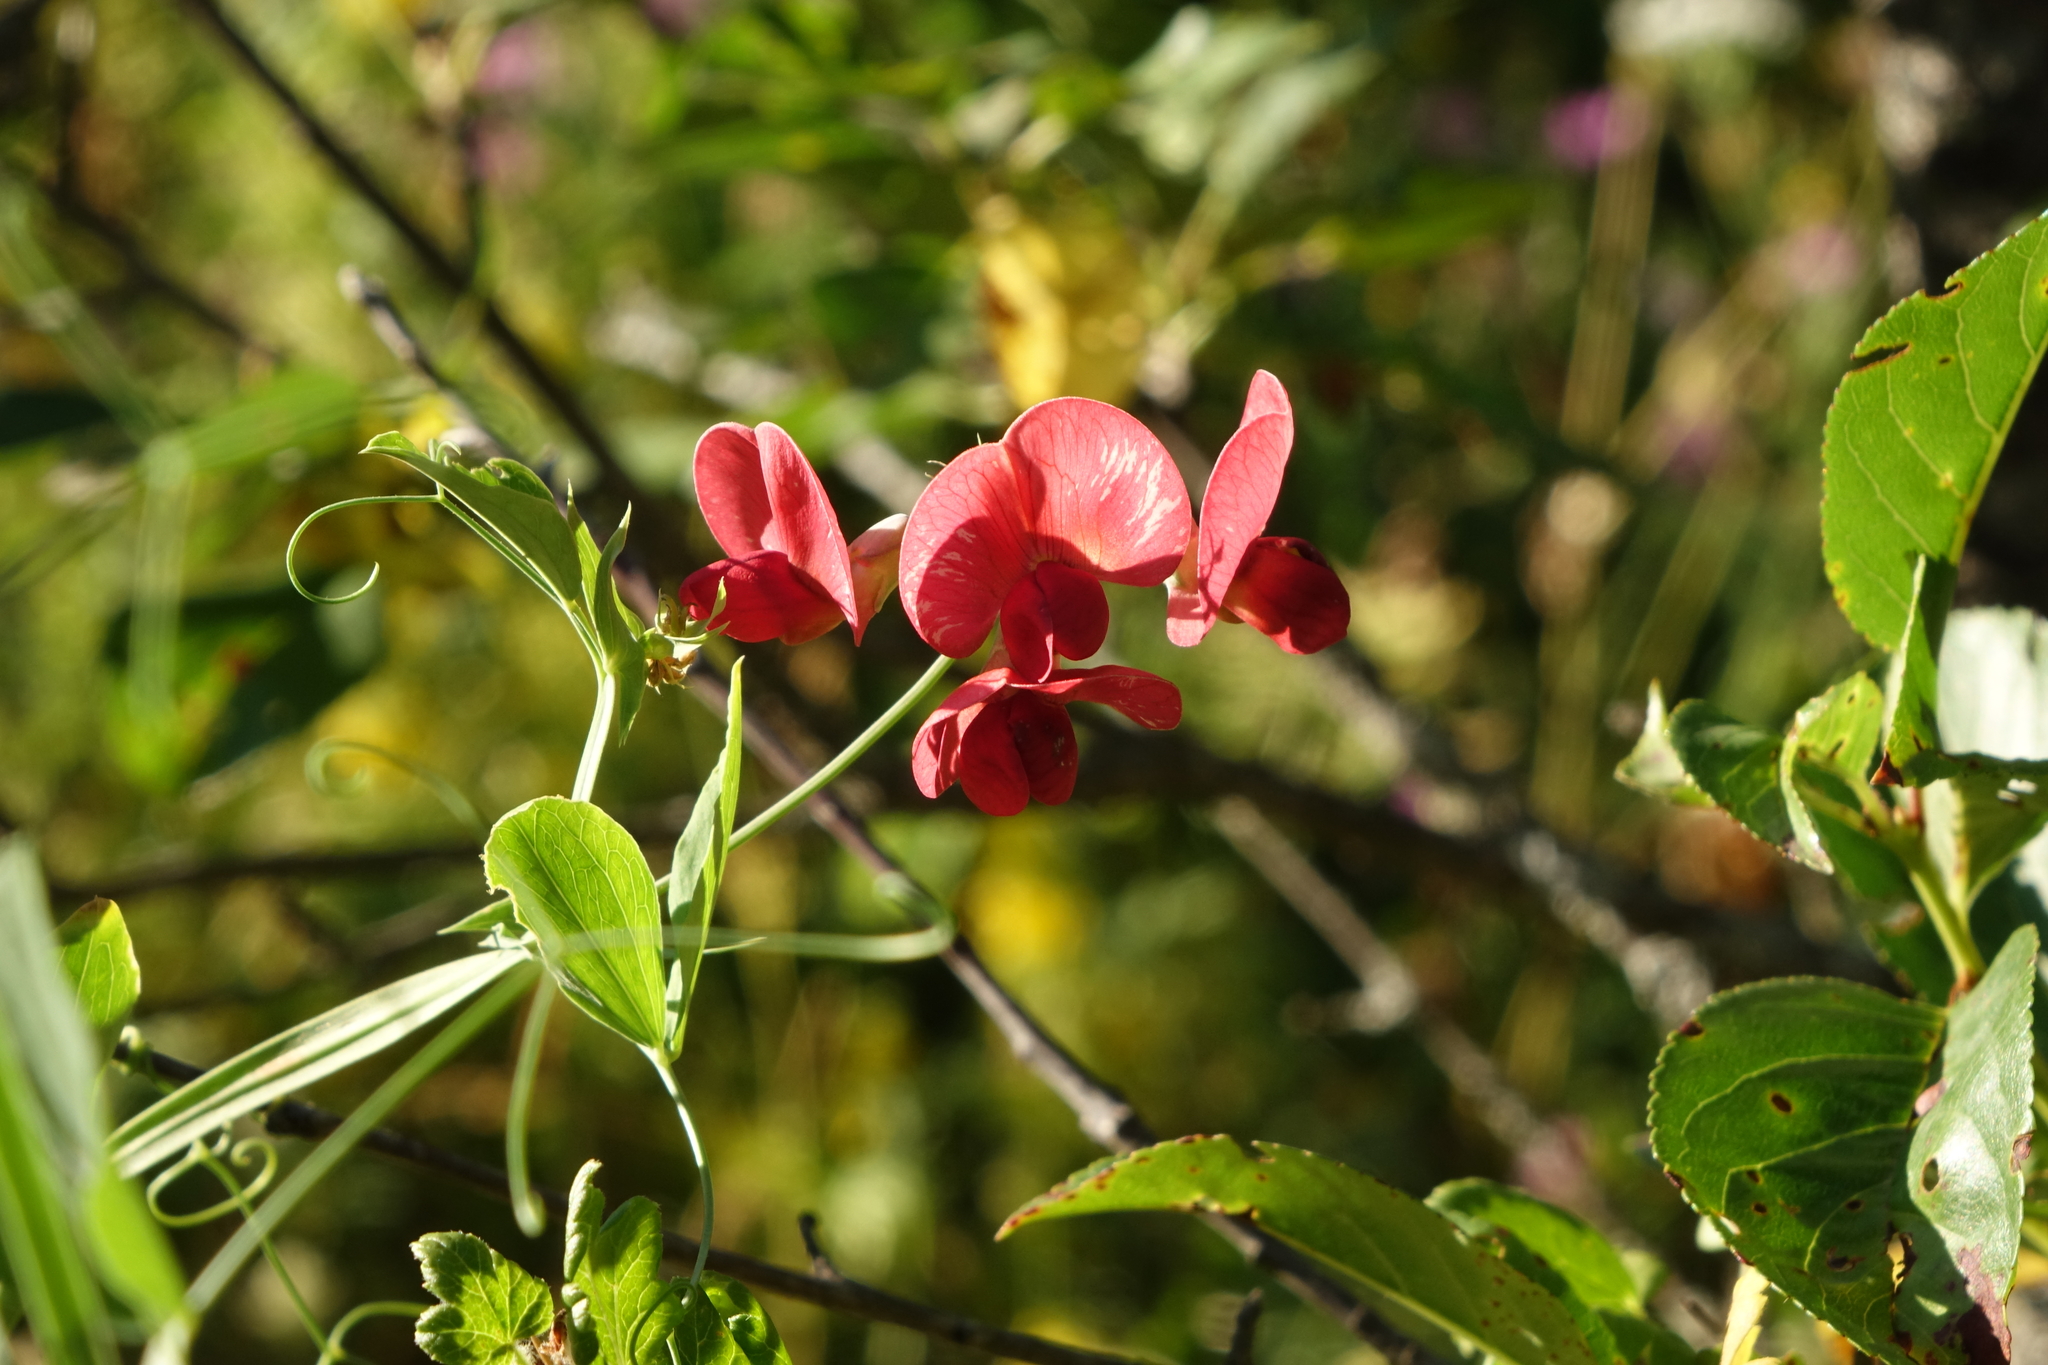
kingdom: Plantae
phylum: Tracheophyta
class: Magnoliopsida
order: Fabales
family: Fabaceae
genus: Lathyrus
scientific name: Lathyrus miniatus
